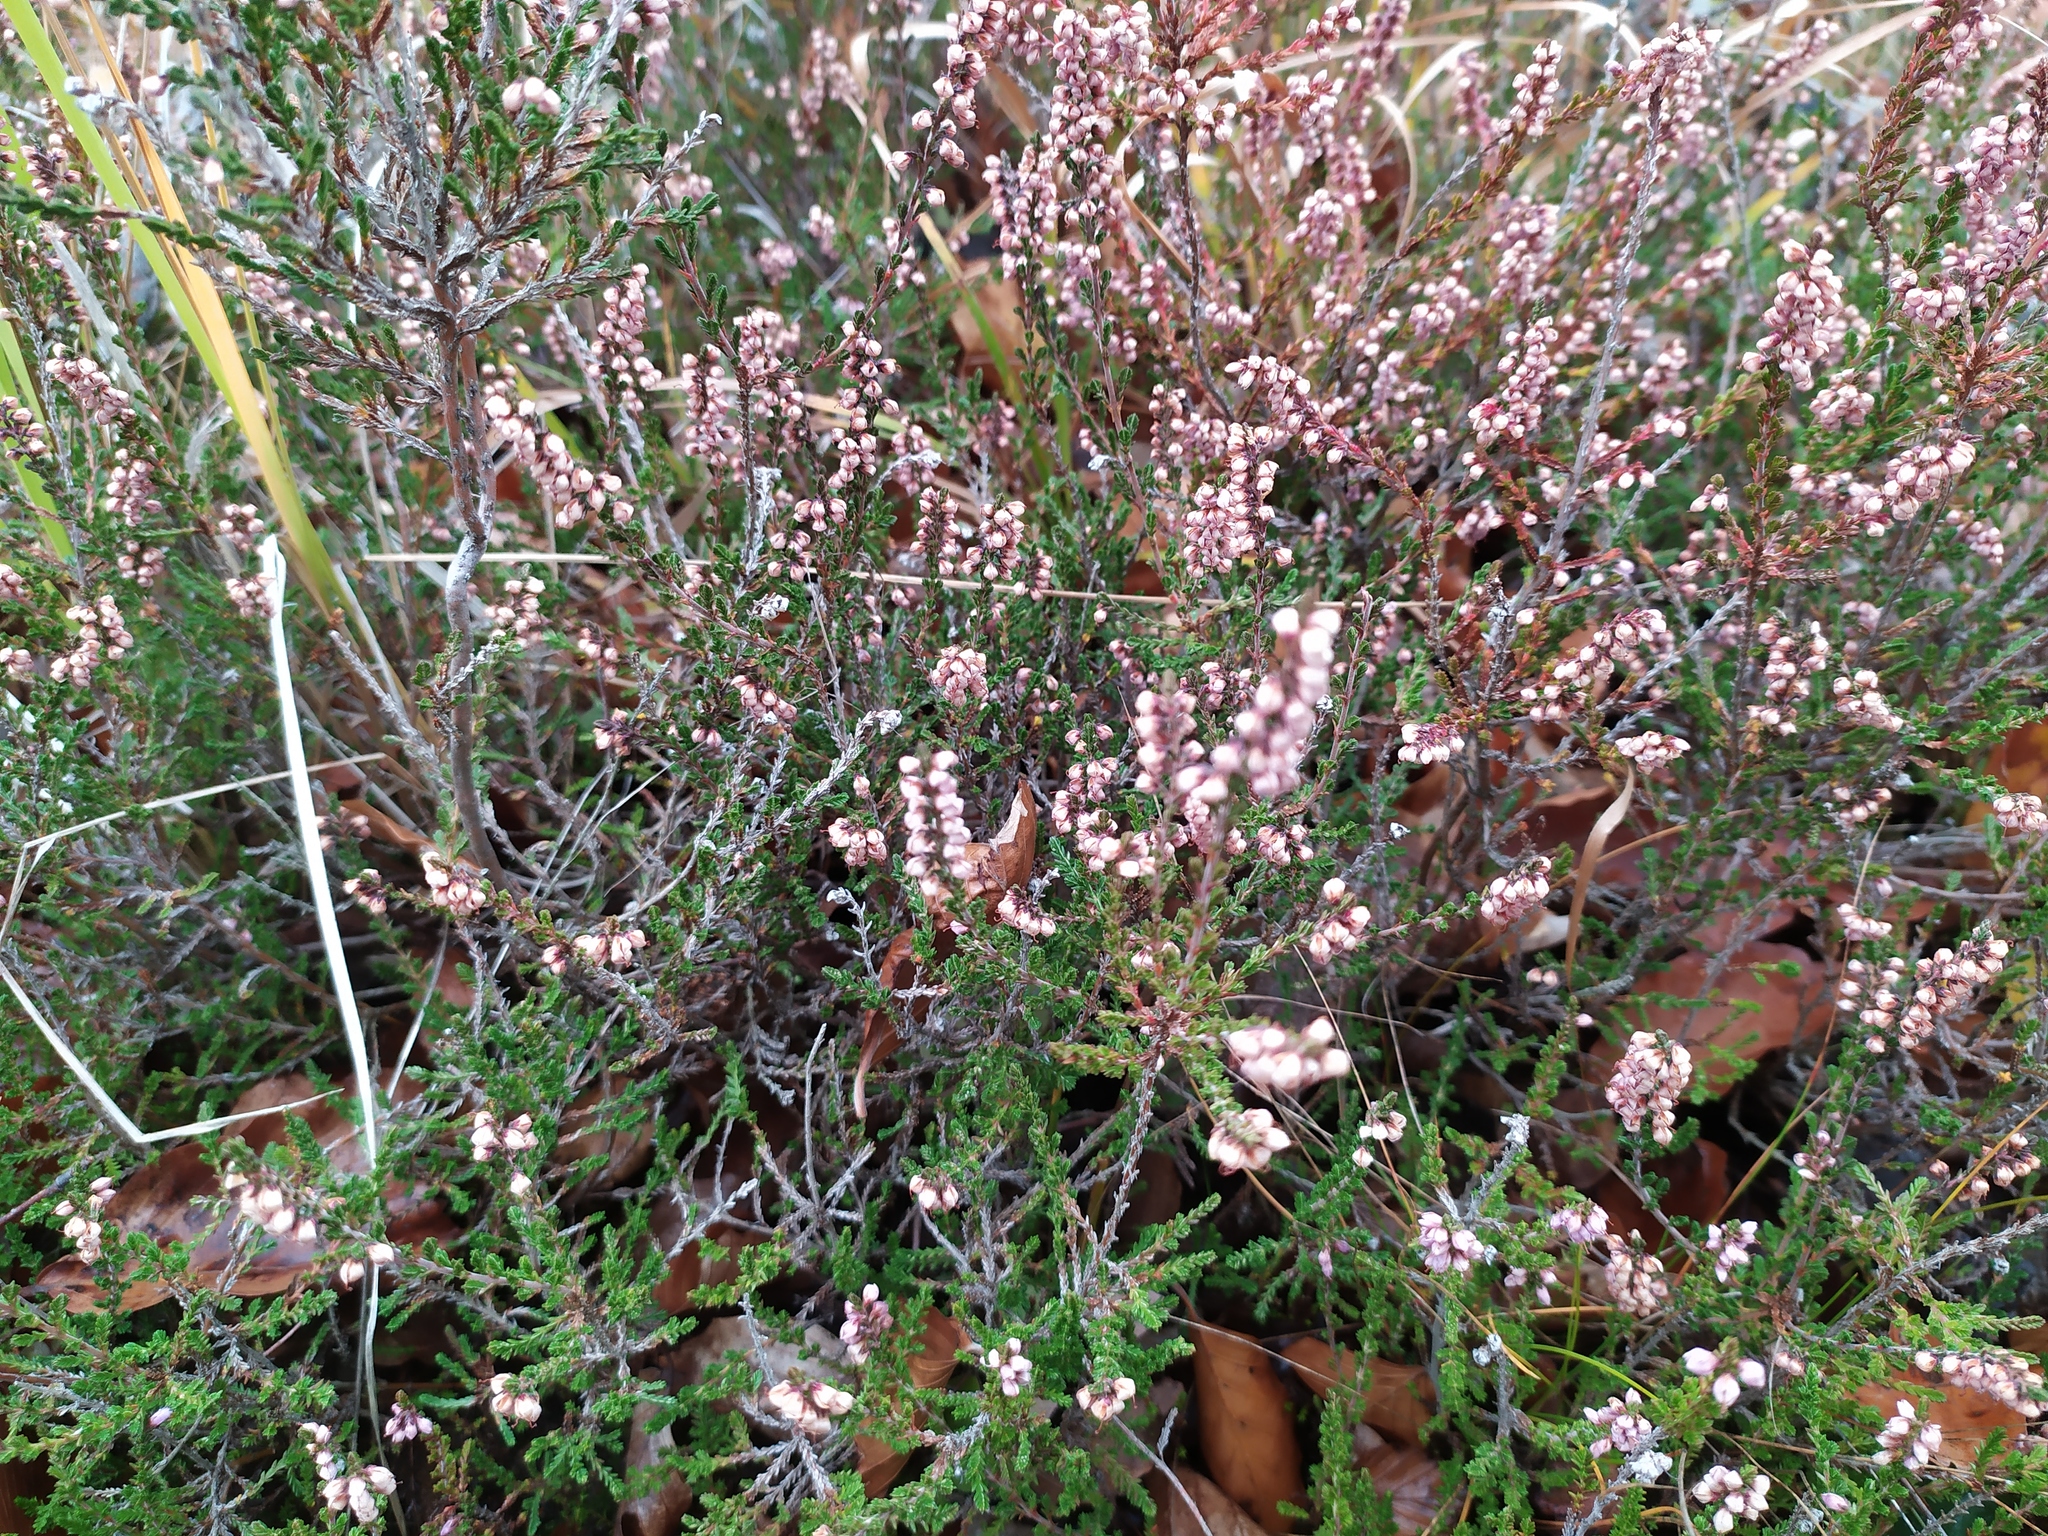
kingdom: Plantae
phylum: Tracheophyta
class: Magnoliopsida
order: Ericales
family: Ericaceae
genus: Calluna
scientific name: Calluna vulgaris
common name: Heather
